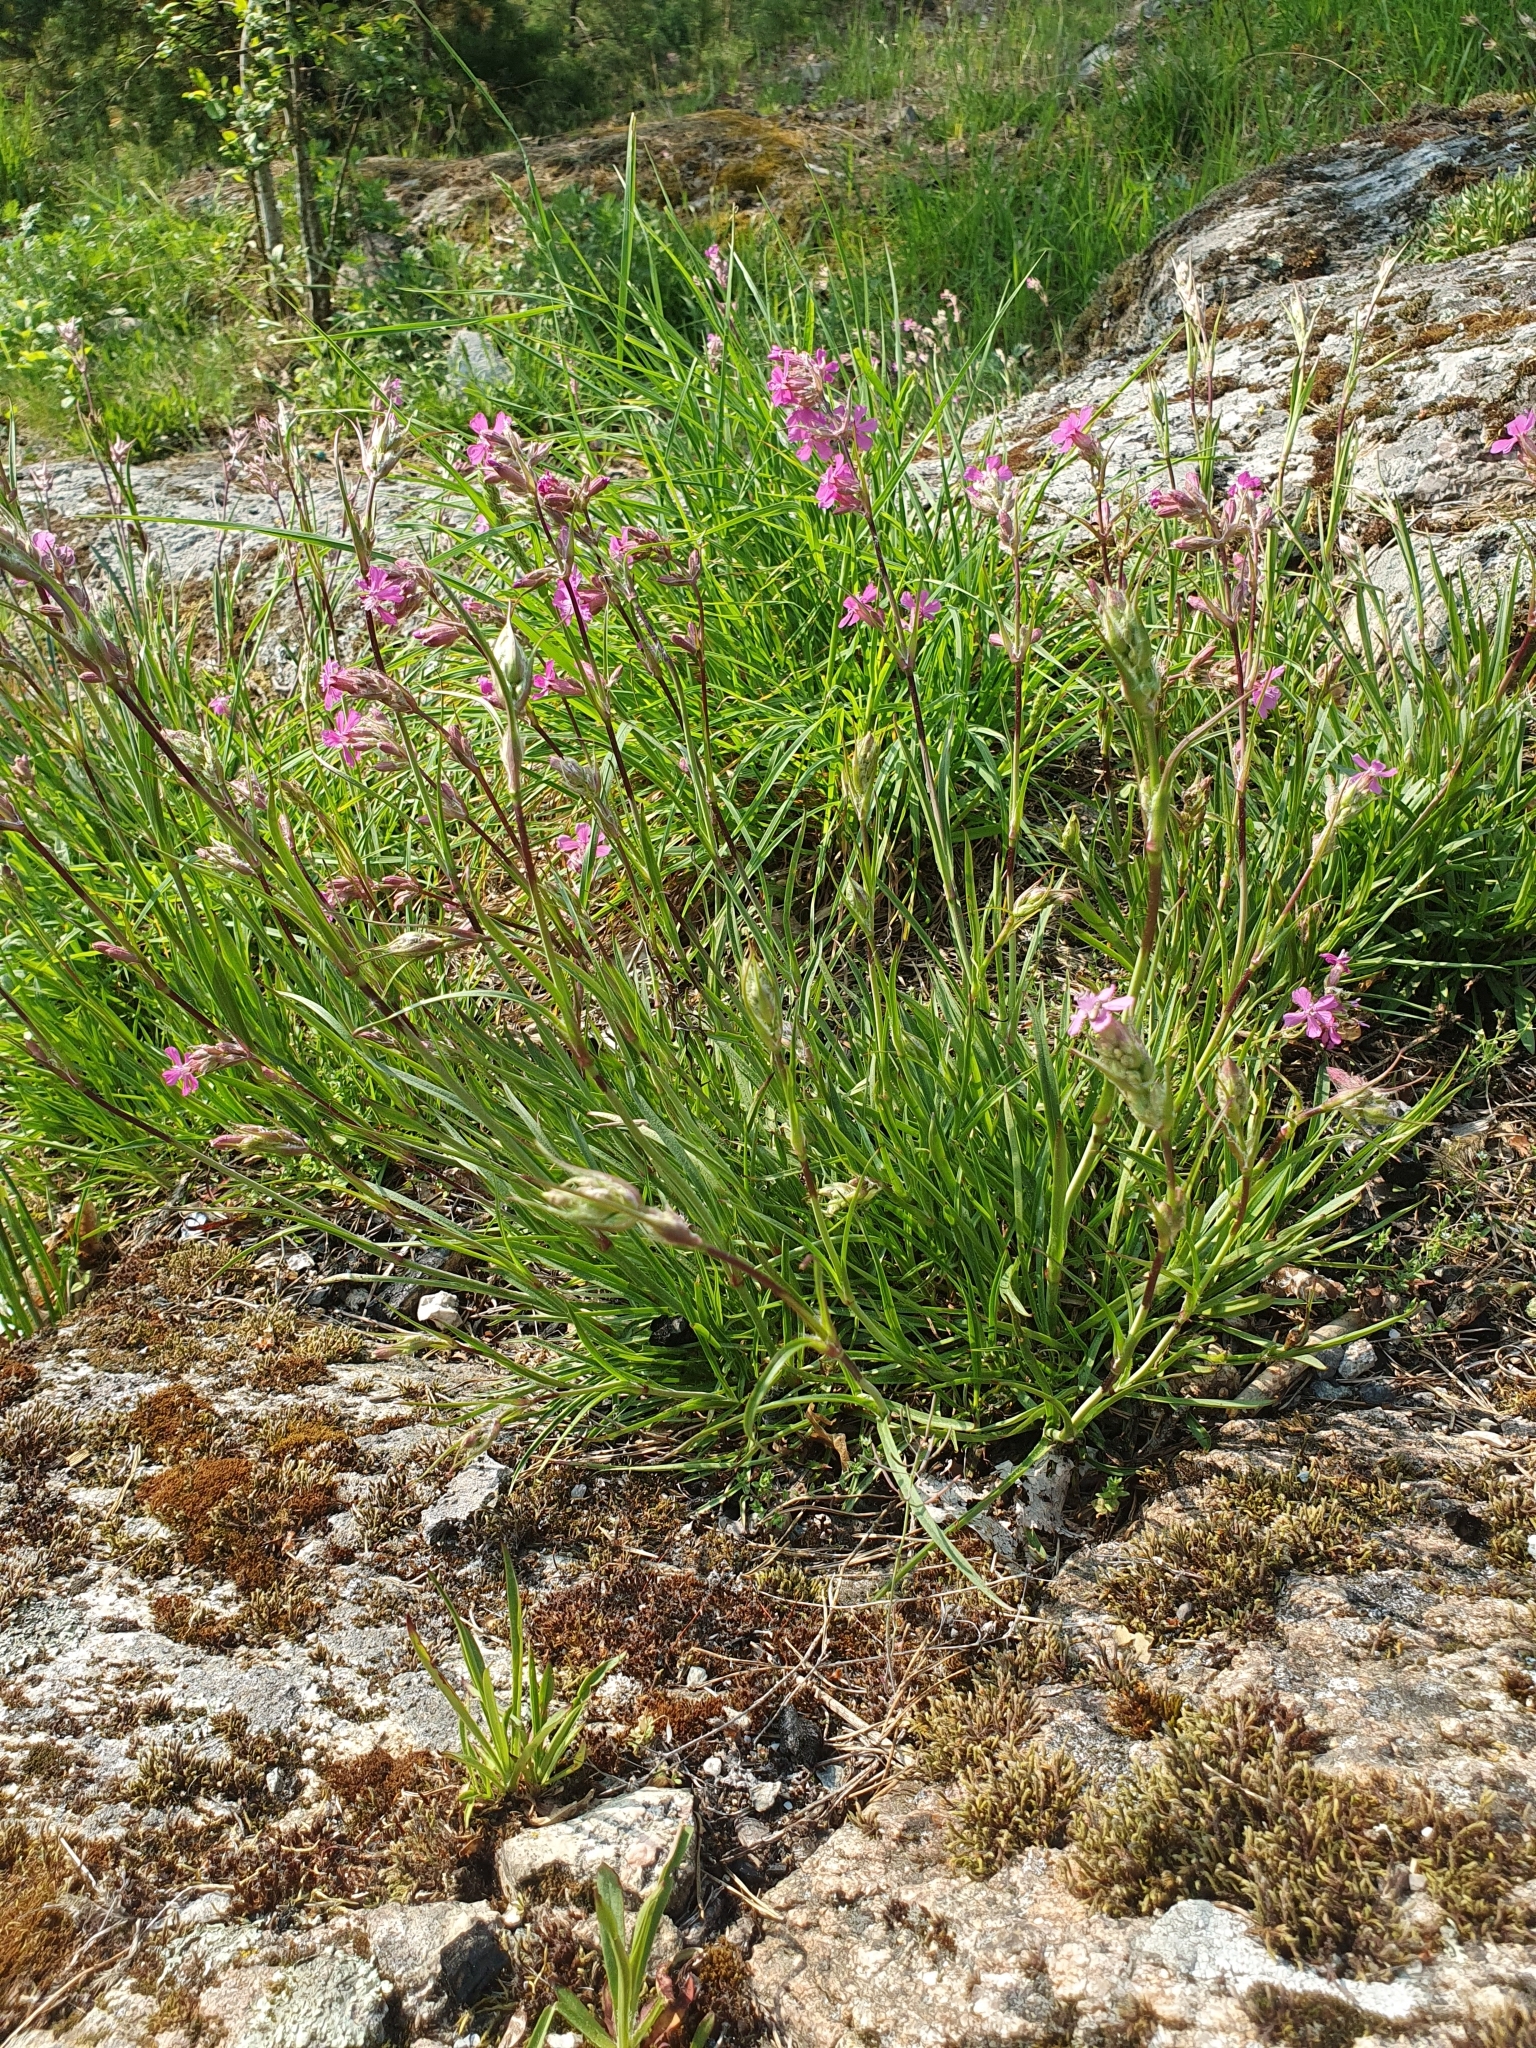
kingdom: Plantae
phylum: Tracheophyta
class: Magnoliopsida
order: Caryophyllales
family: Caryophyllaceae
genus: Viscaria
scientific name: Viscaria vulgaris
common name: Clammy campion
